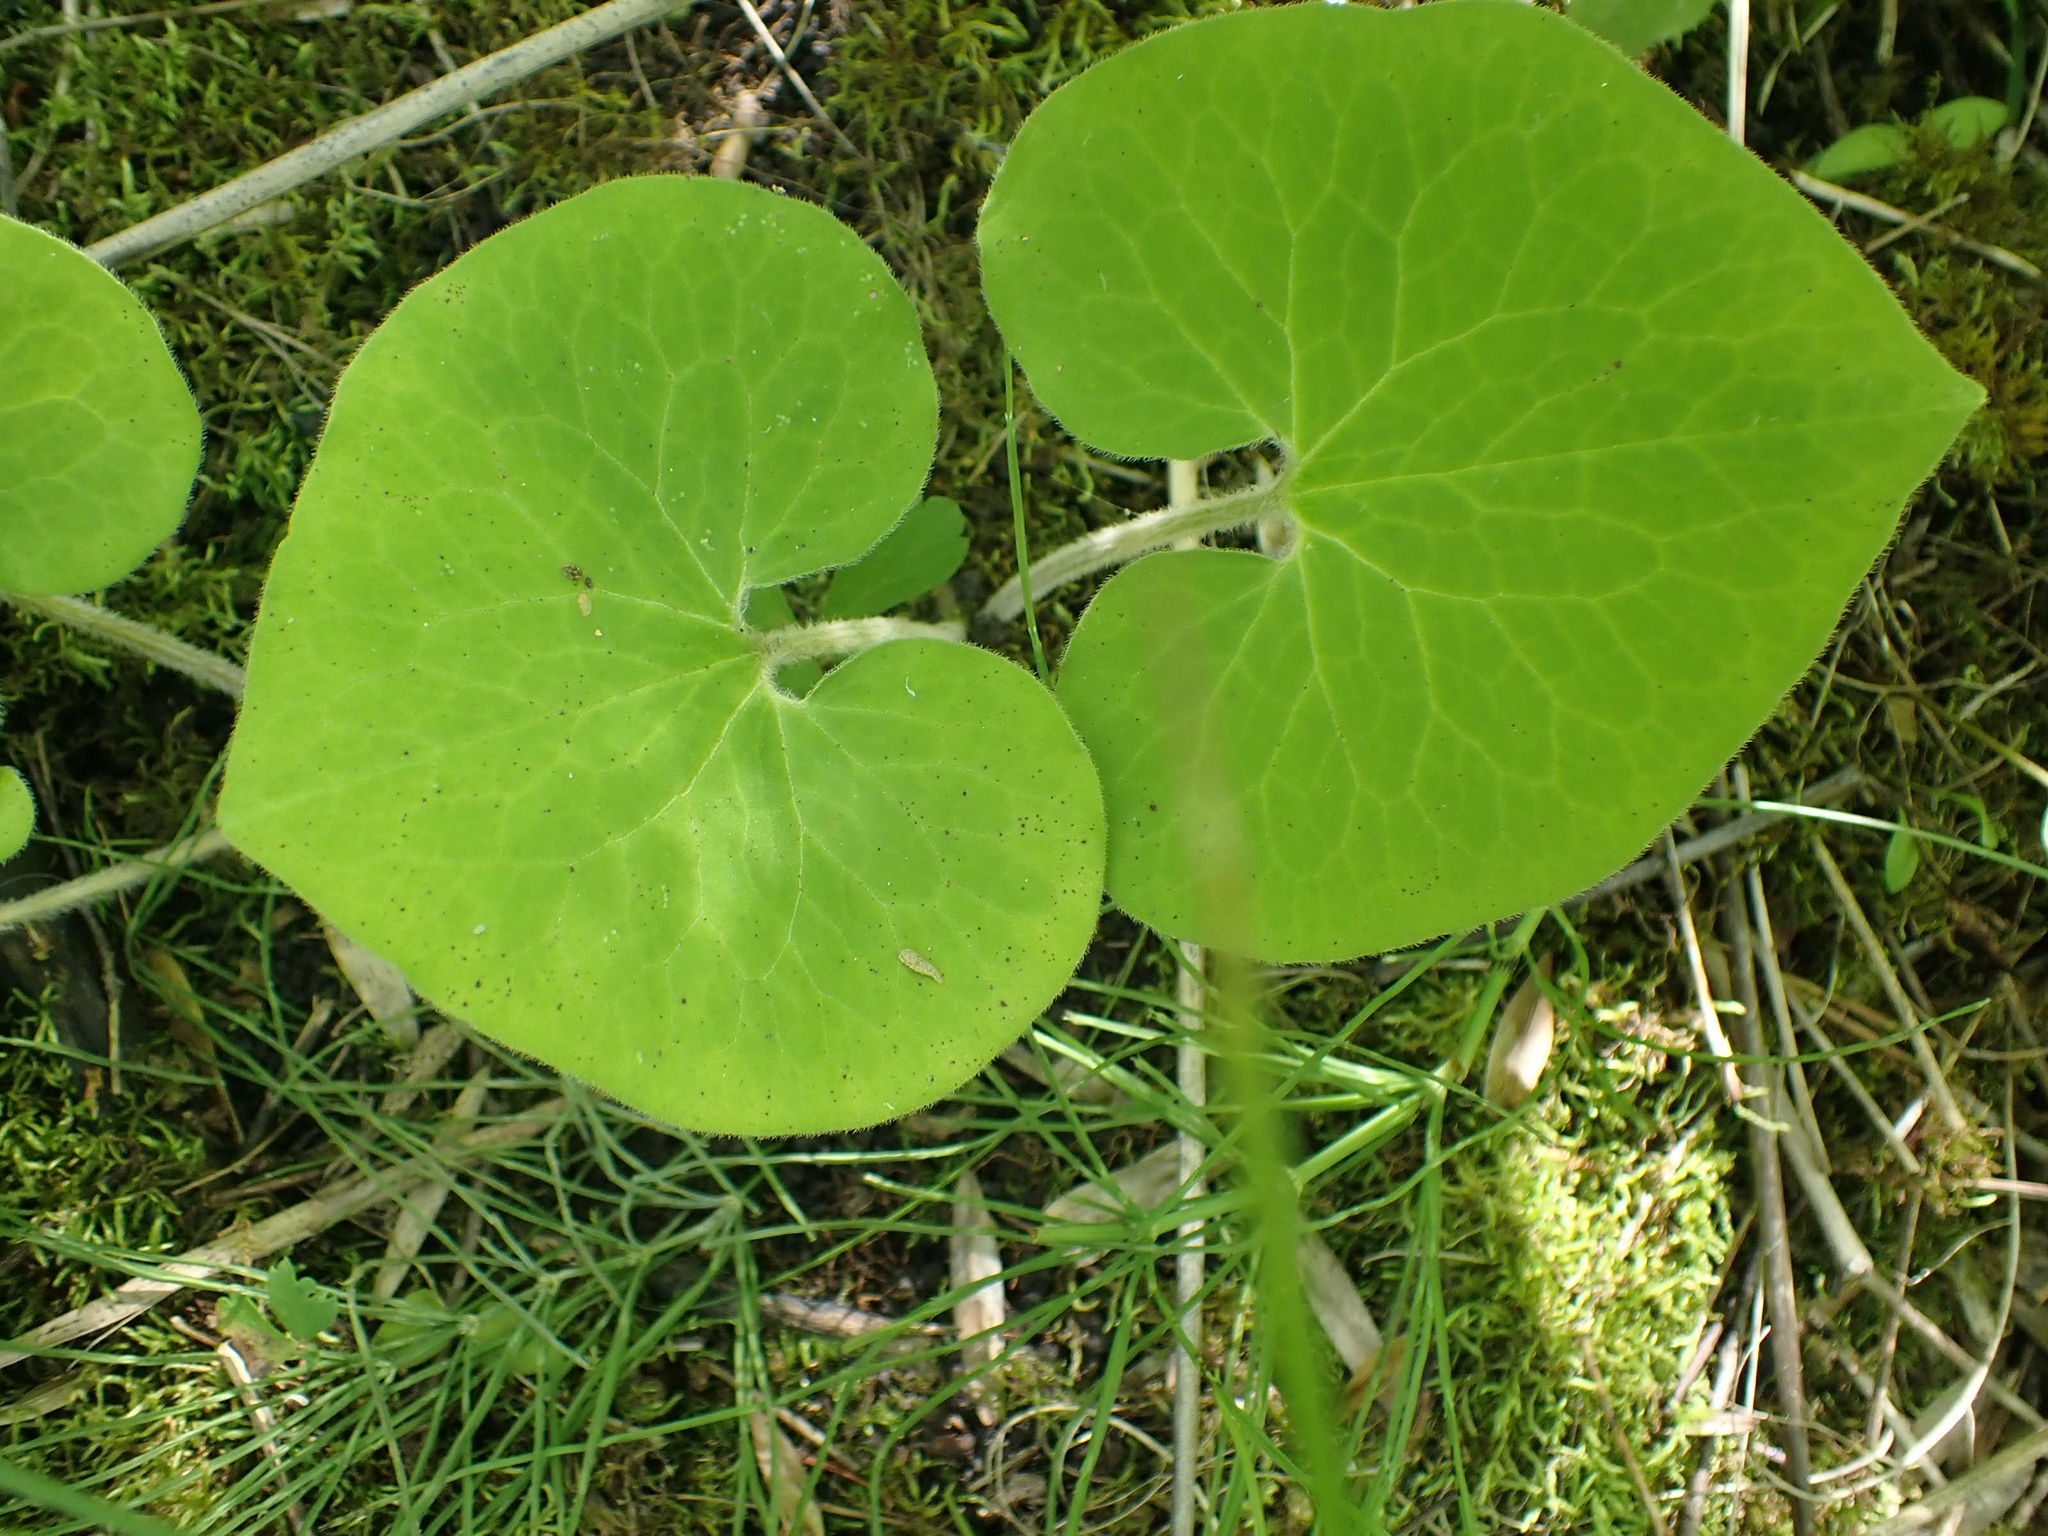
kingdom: Plantae
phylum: Tracheophyta
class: Magnoliopsida
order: Piperales
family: Aristolochiaceae
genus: Asarum
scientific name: Asarum canadense
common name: Wild ginger
